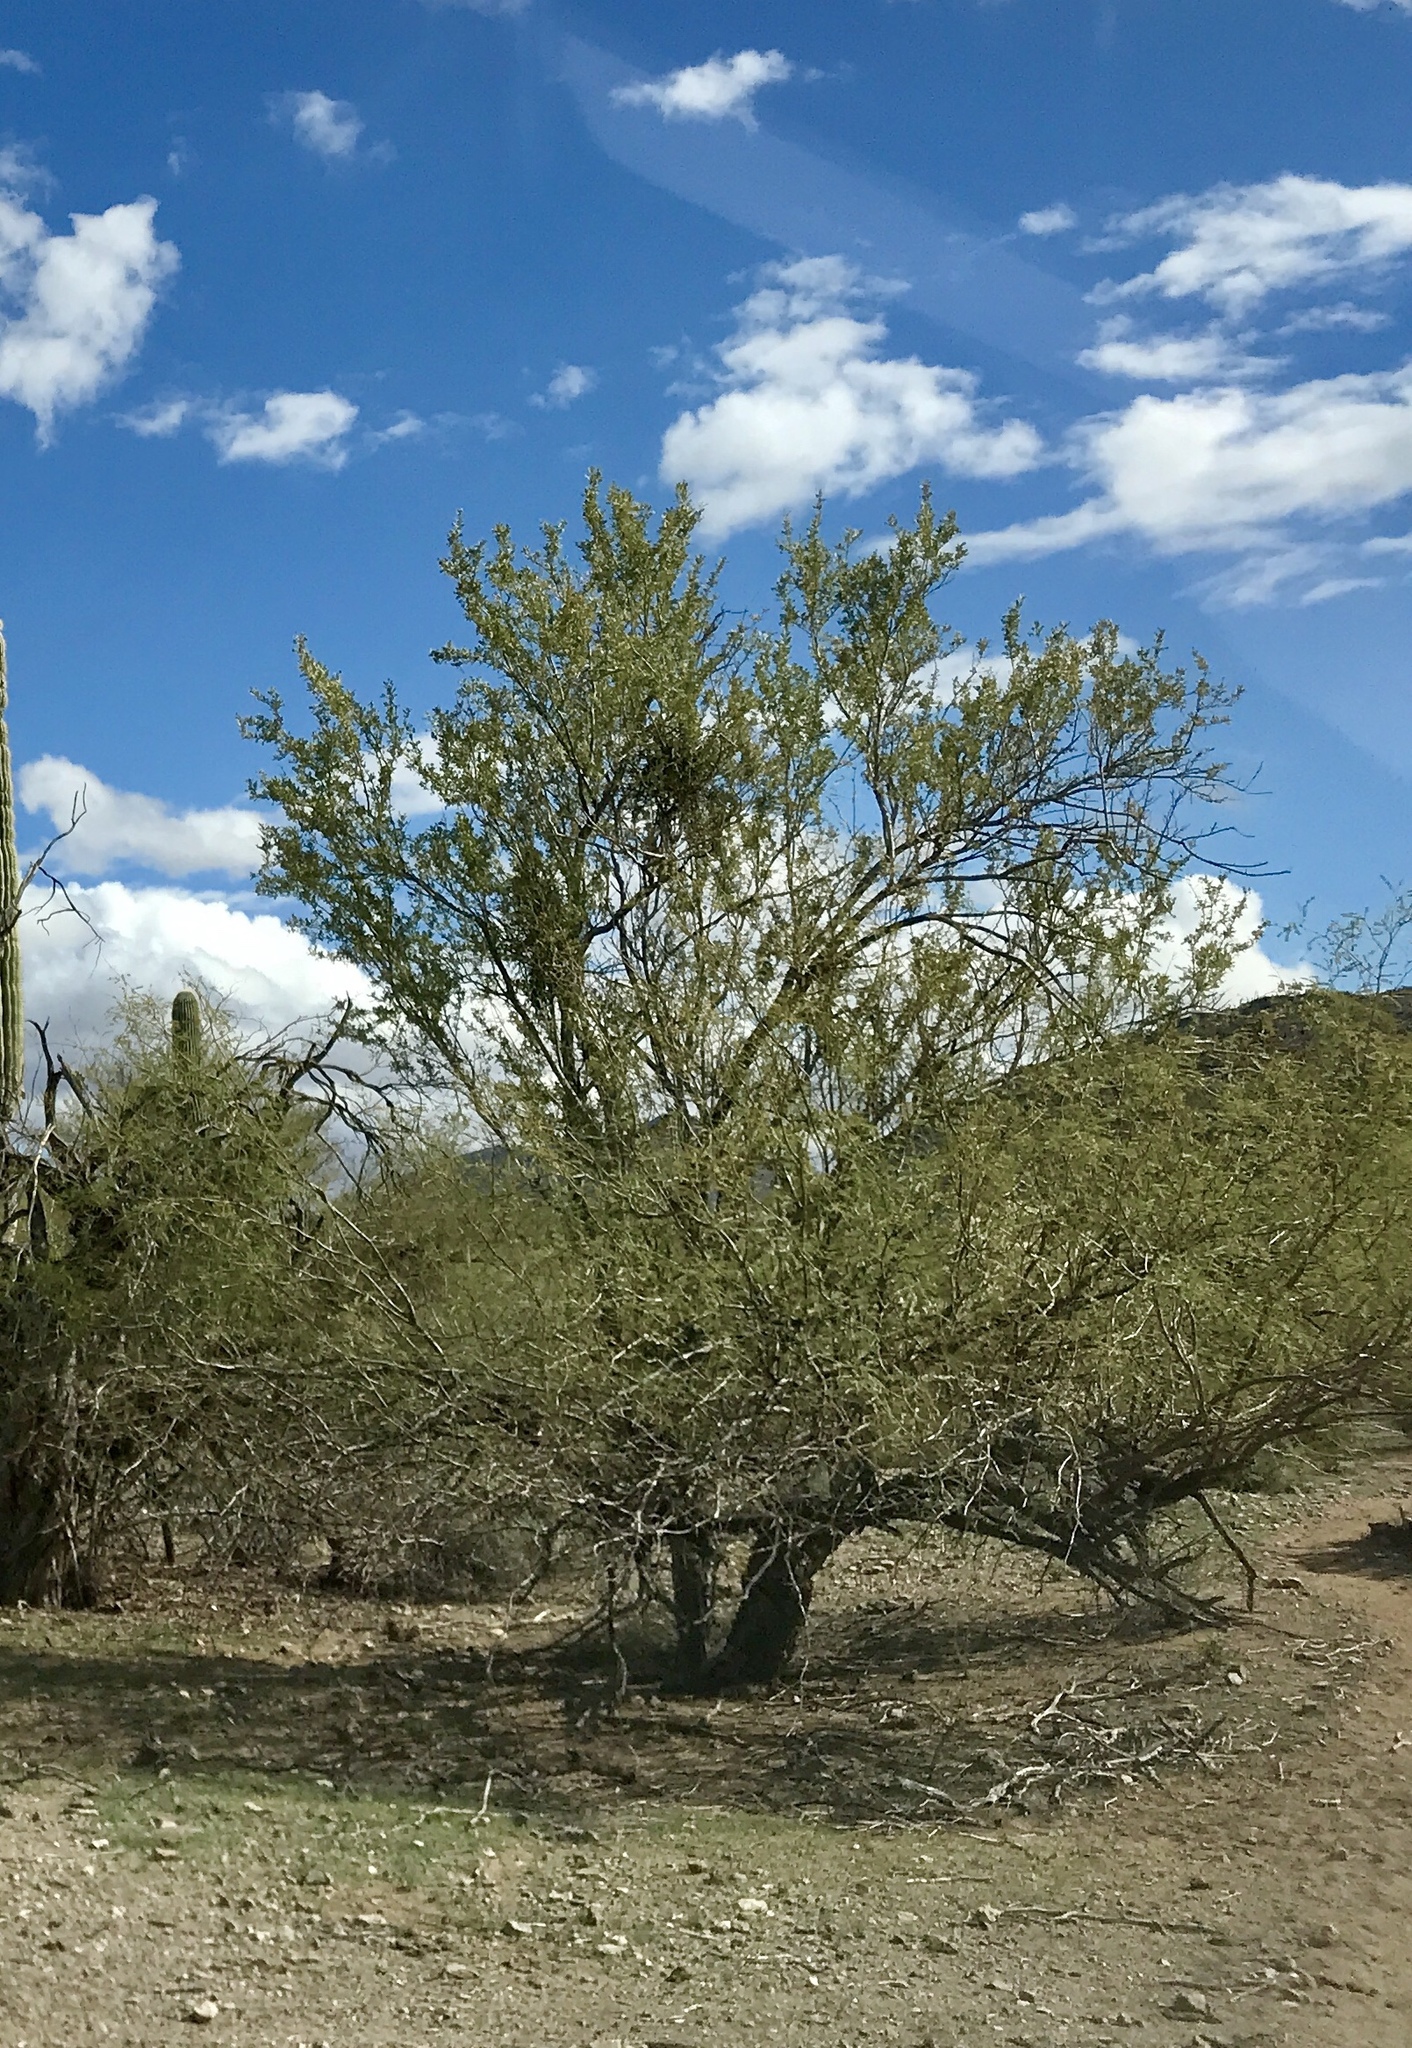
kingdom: Plantae
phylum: Tracheophyta
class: Magnoliopsida
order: Fabales
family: Fabaceae
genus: Olneya
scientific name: Olneya tesota
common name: Desert ironwood
